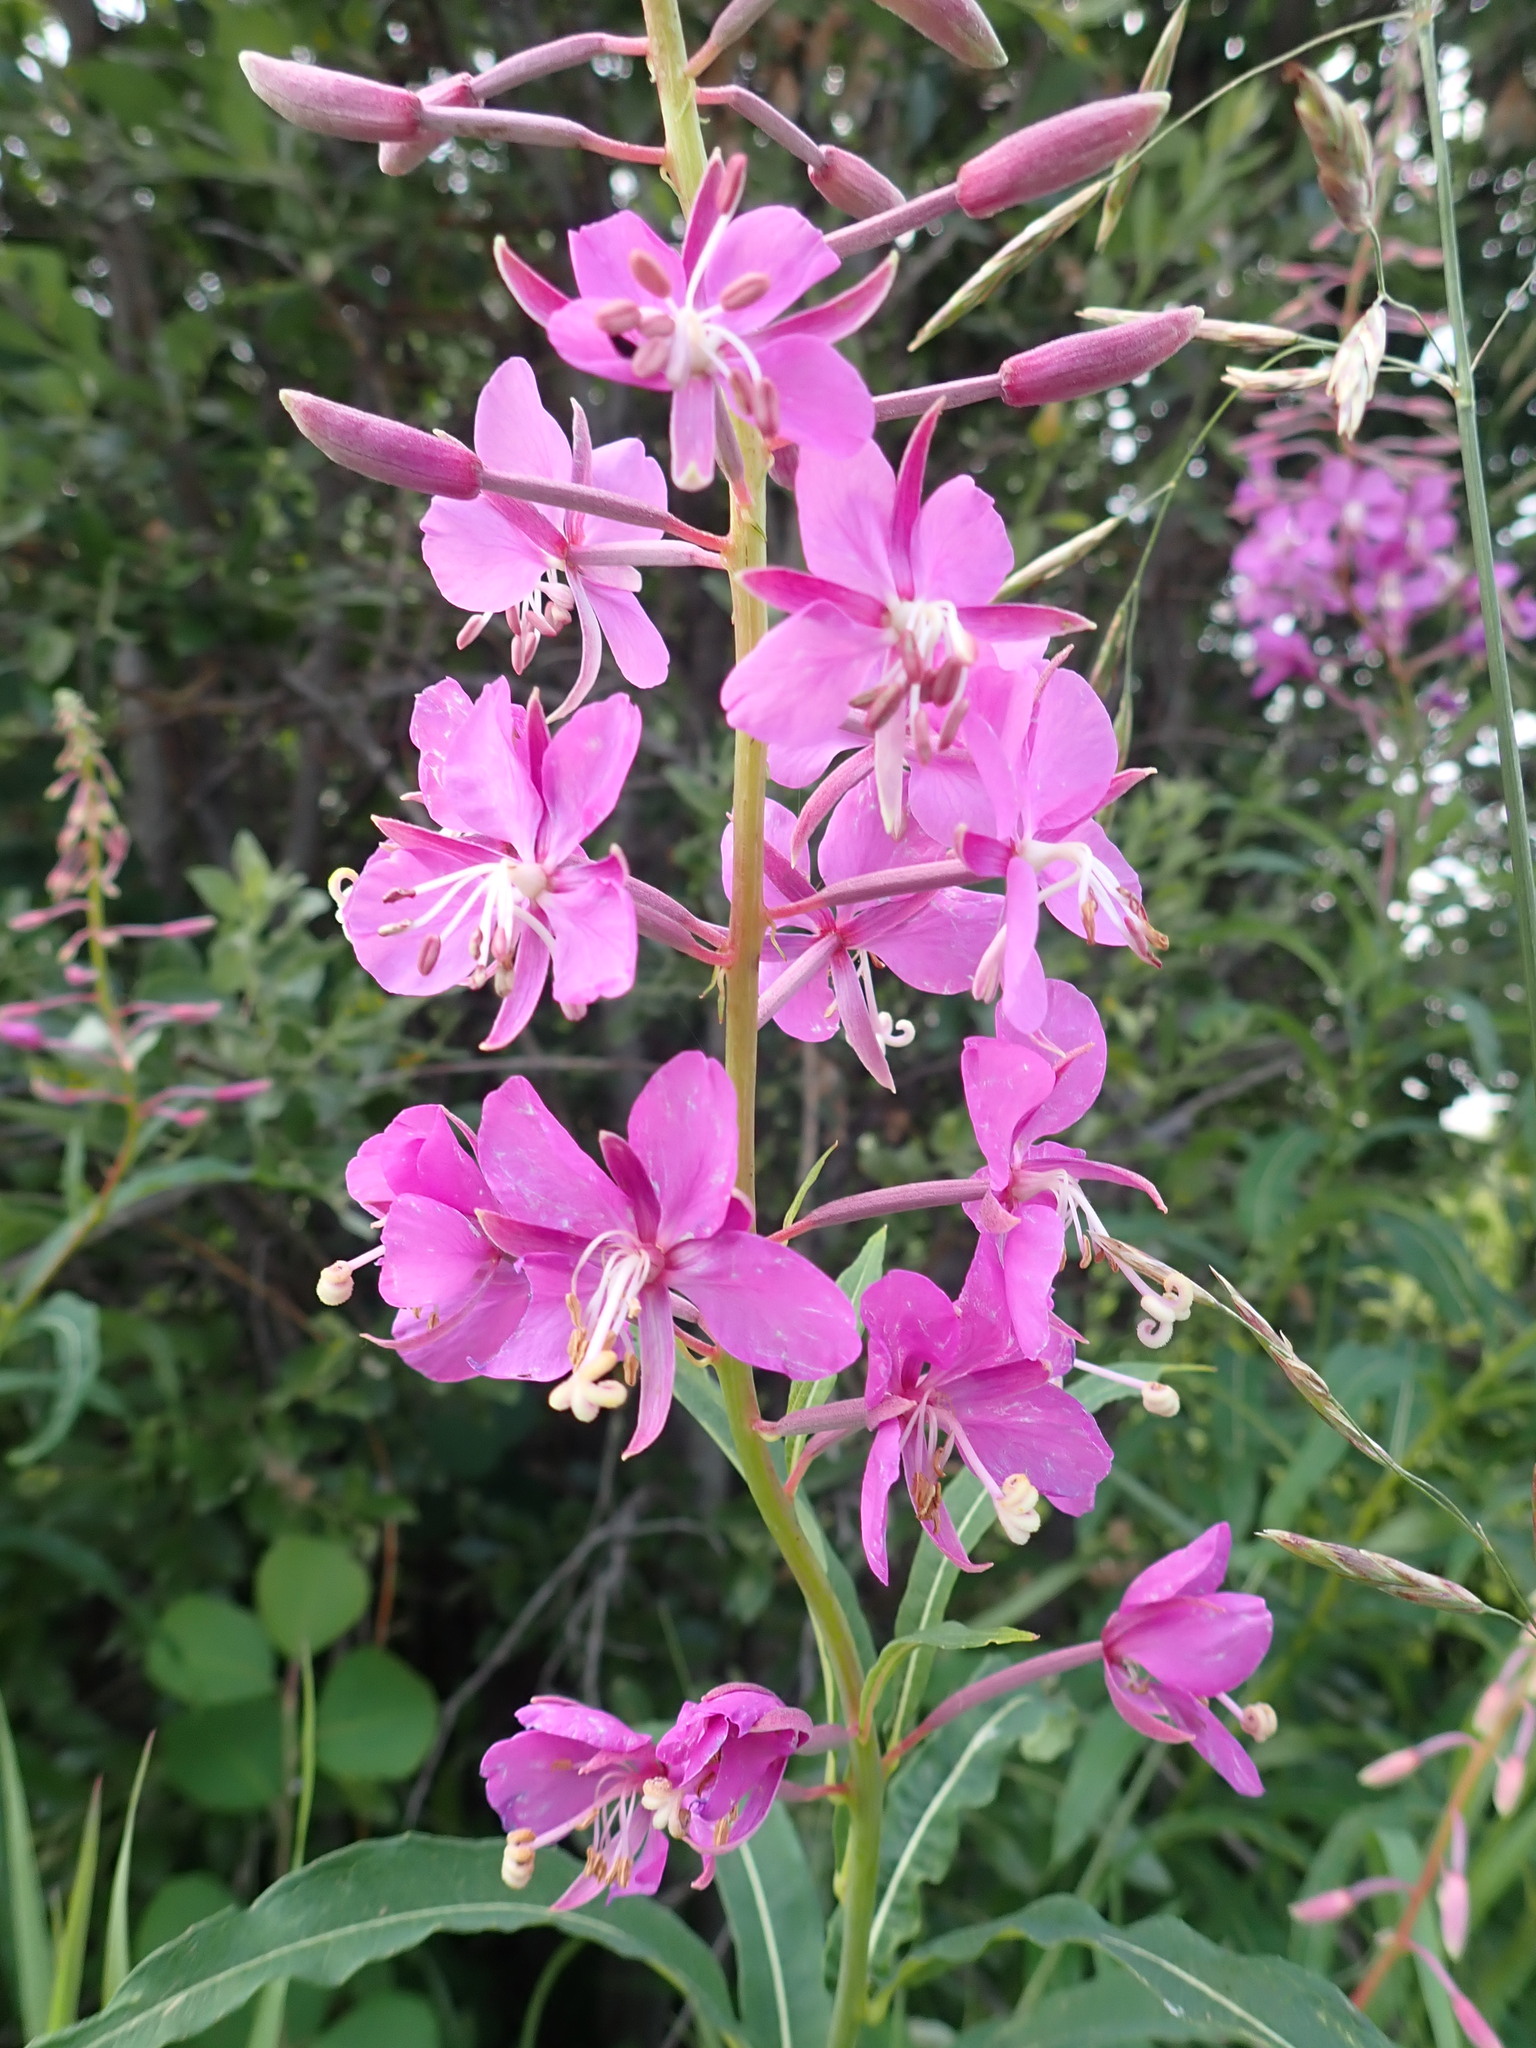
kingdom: Plantae
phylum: Tracheophyta
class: Magnoliopsida
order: Myrtales
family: Onagraceae
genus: Chamaenerion
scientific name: Chamaenerion angustifolium
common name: Fireweed
